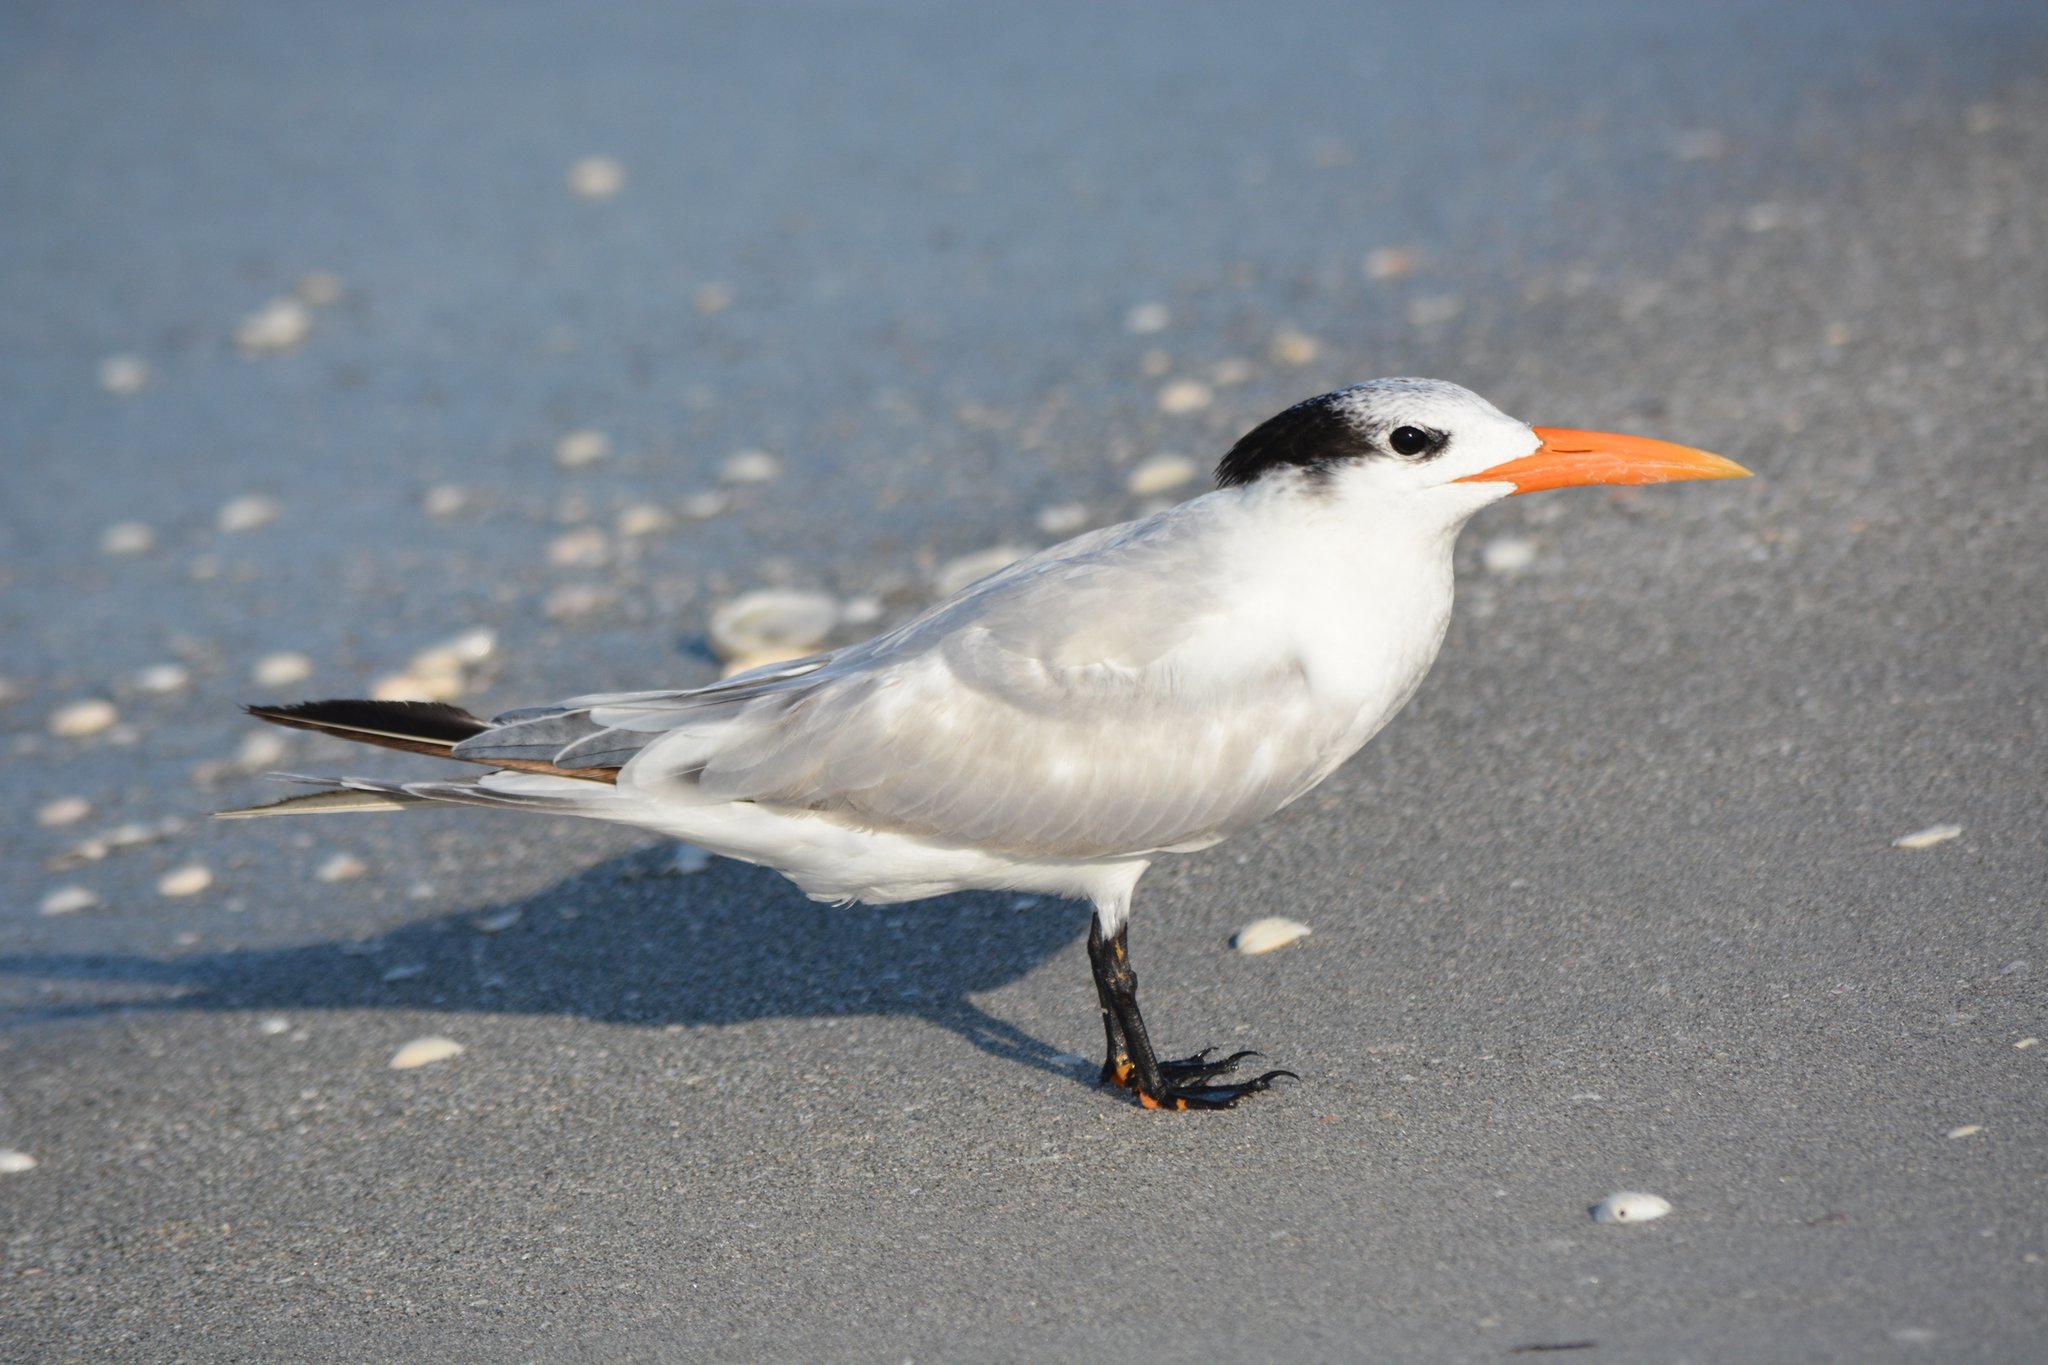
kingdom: Animalia
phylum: Chordata
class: Aves
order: Charadriiformes
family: Laridae
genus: Thalasseus
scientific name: Thalasseus maximus
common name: Royal tern
